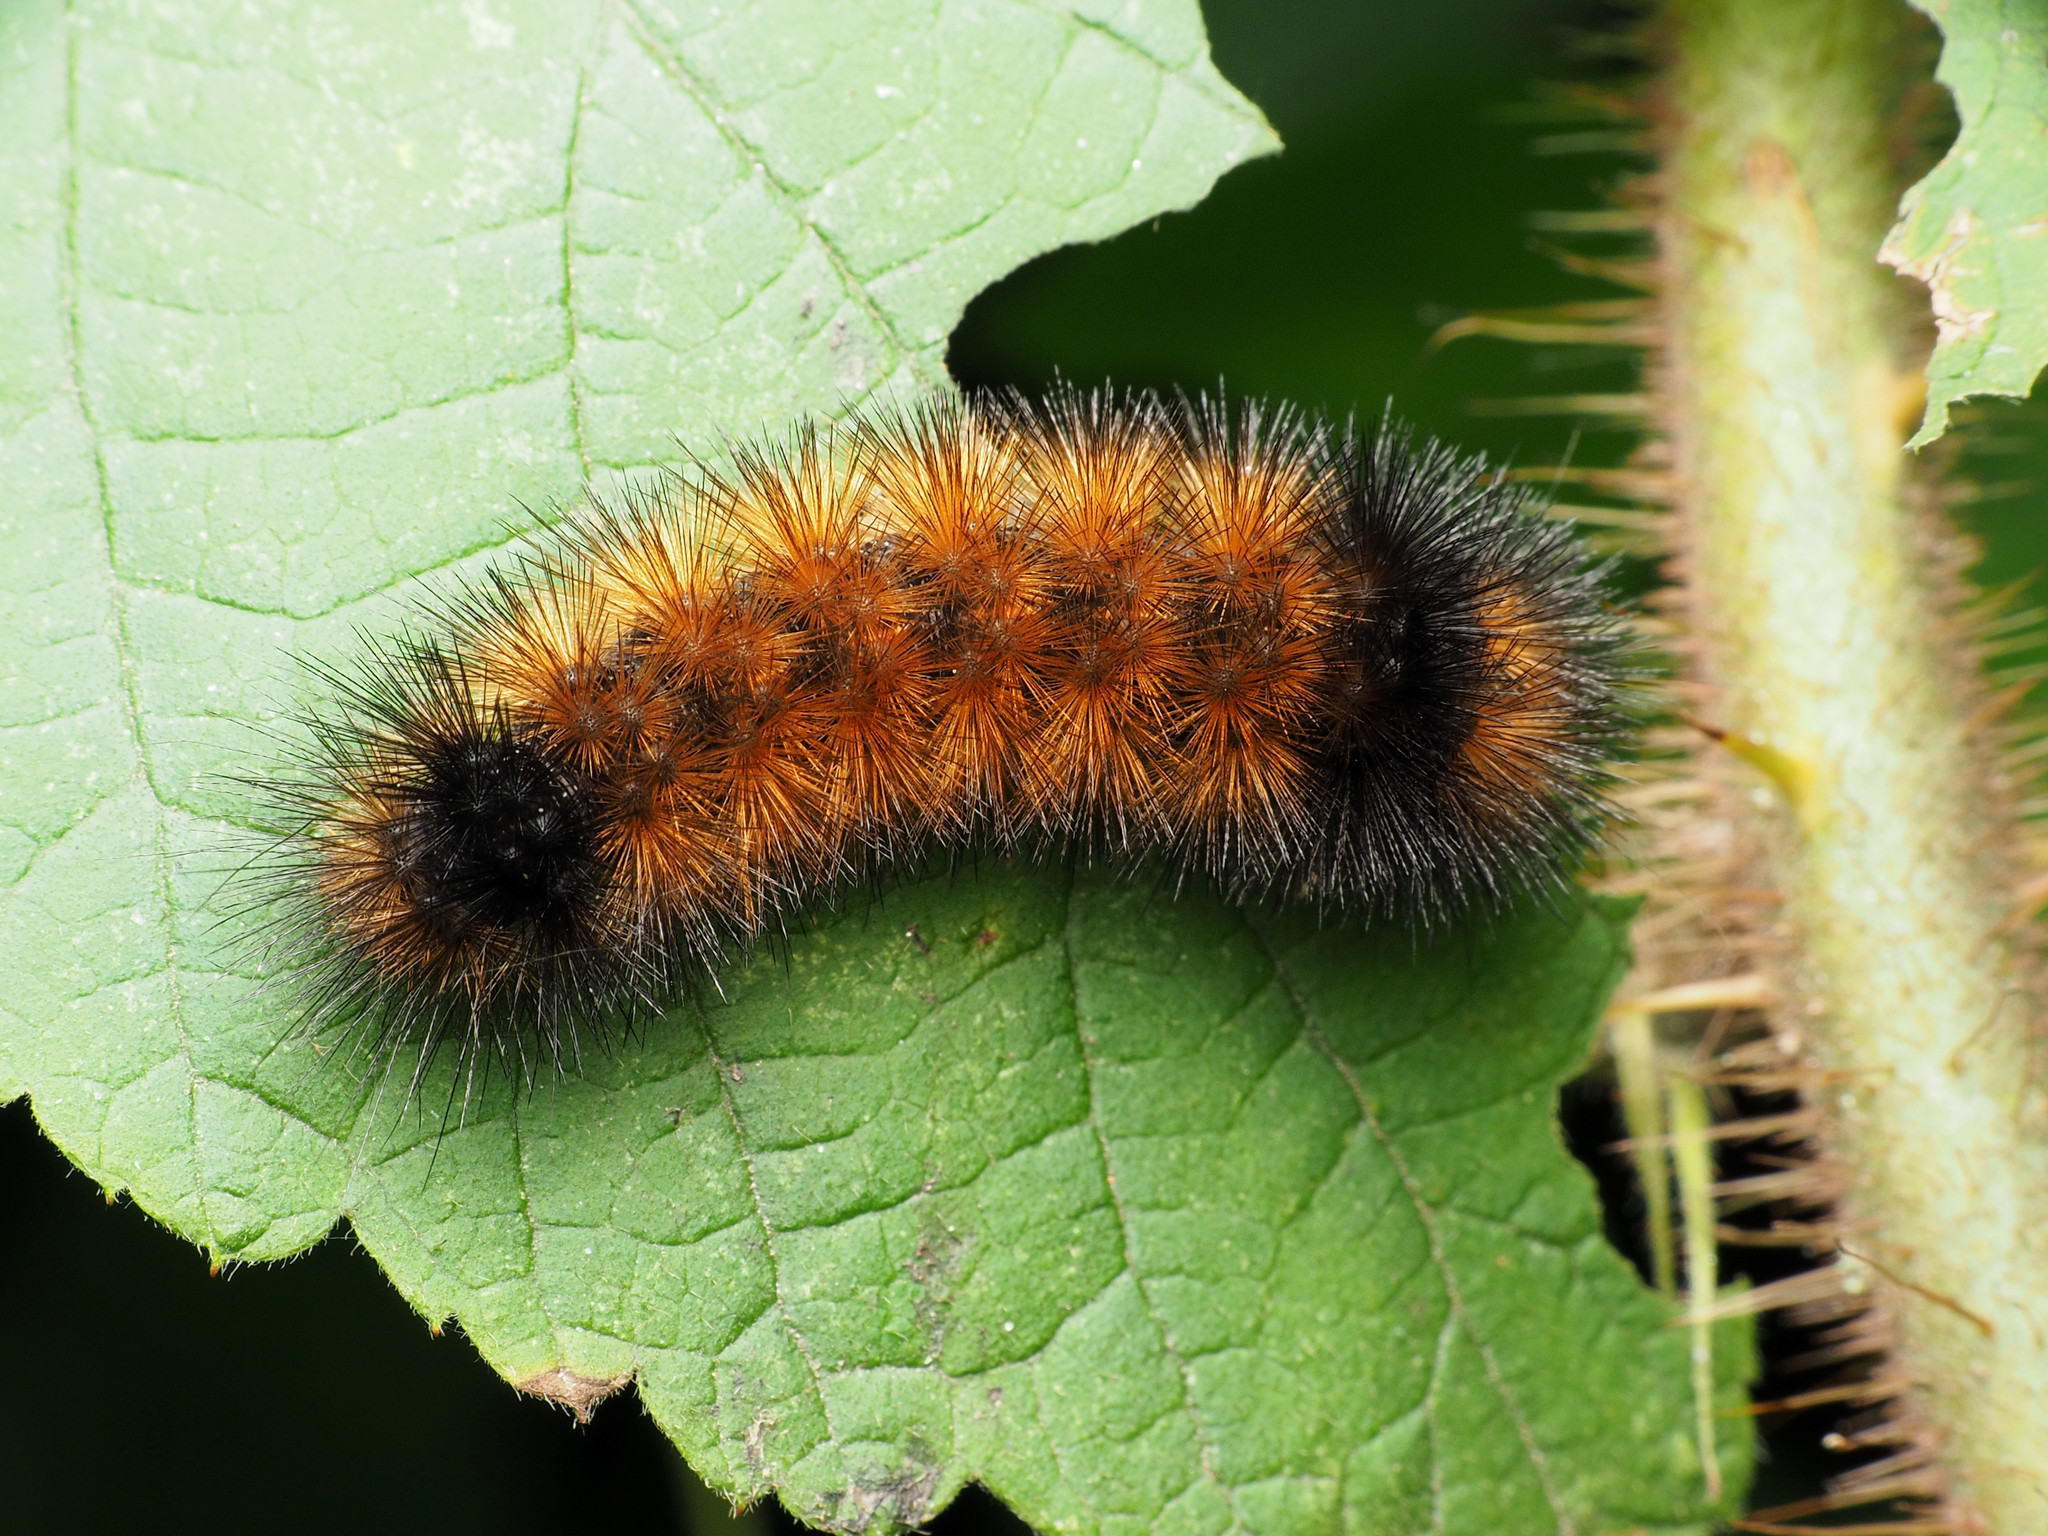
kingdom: Animalia
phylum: Arthropoda
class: Insecta
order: Lepidoptera
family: Erebidae
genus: Pyrrharctia
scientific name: Pyrrharctia isabella
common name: Isabella tiger moth
